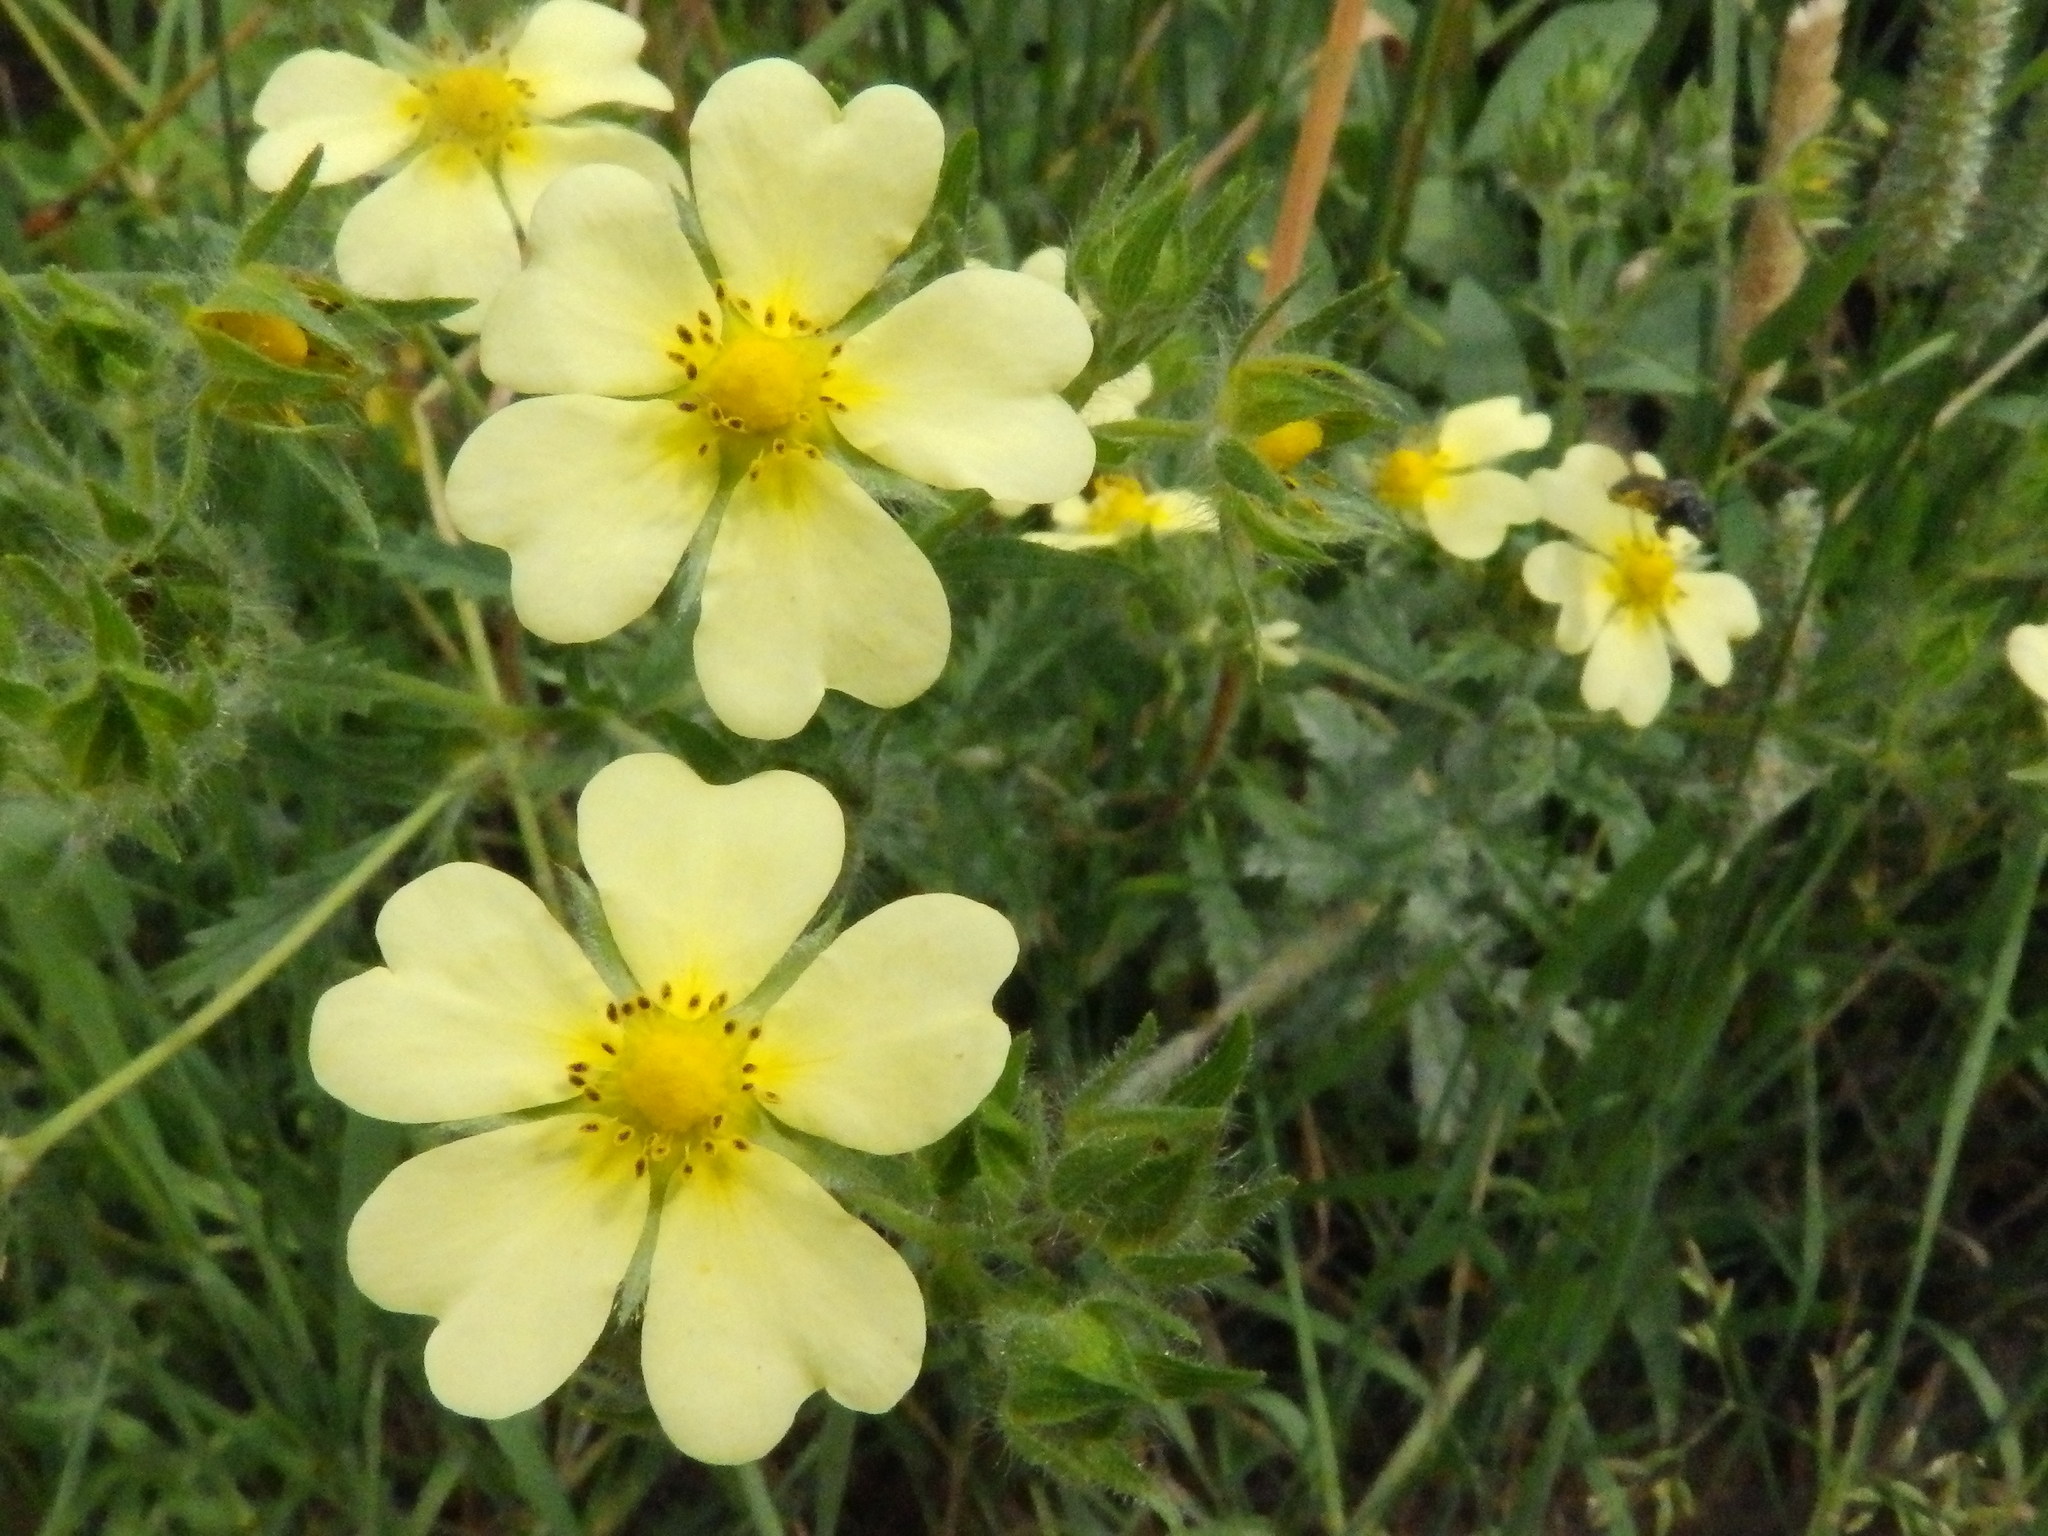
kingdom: Plantae
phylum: Tracheophyta
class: Magnoliopsida
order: Rosales
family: Rosaceae
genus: Potentilla
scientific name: Potentilla recta
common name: Sulphur cinquefoil
